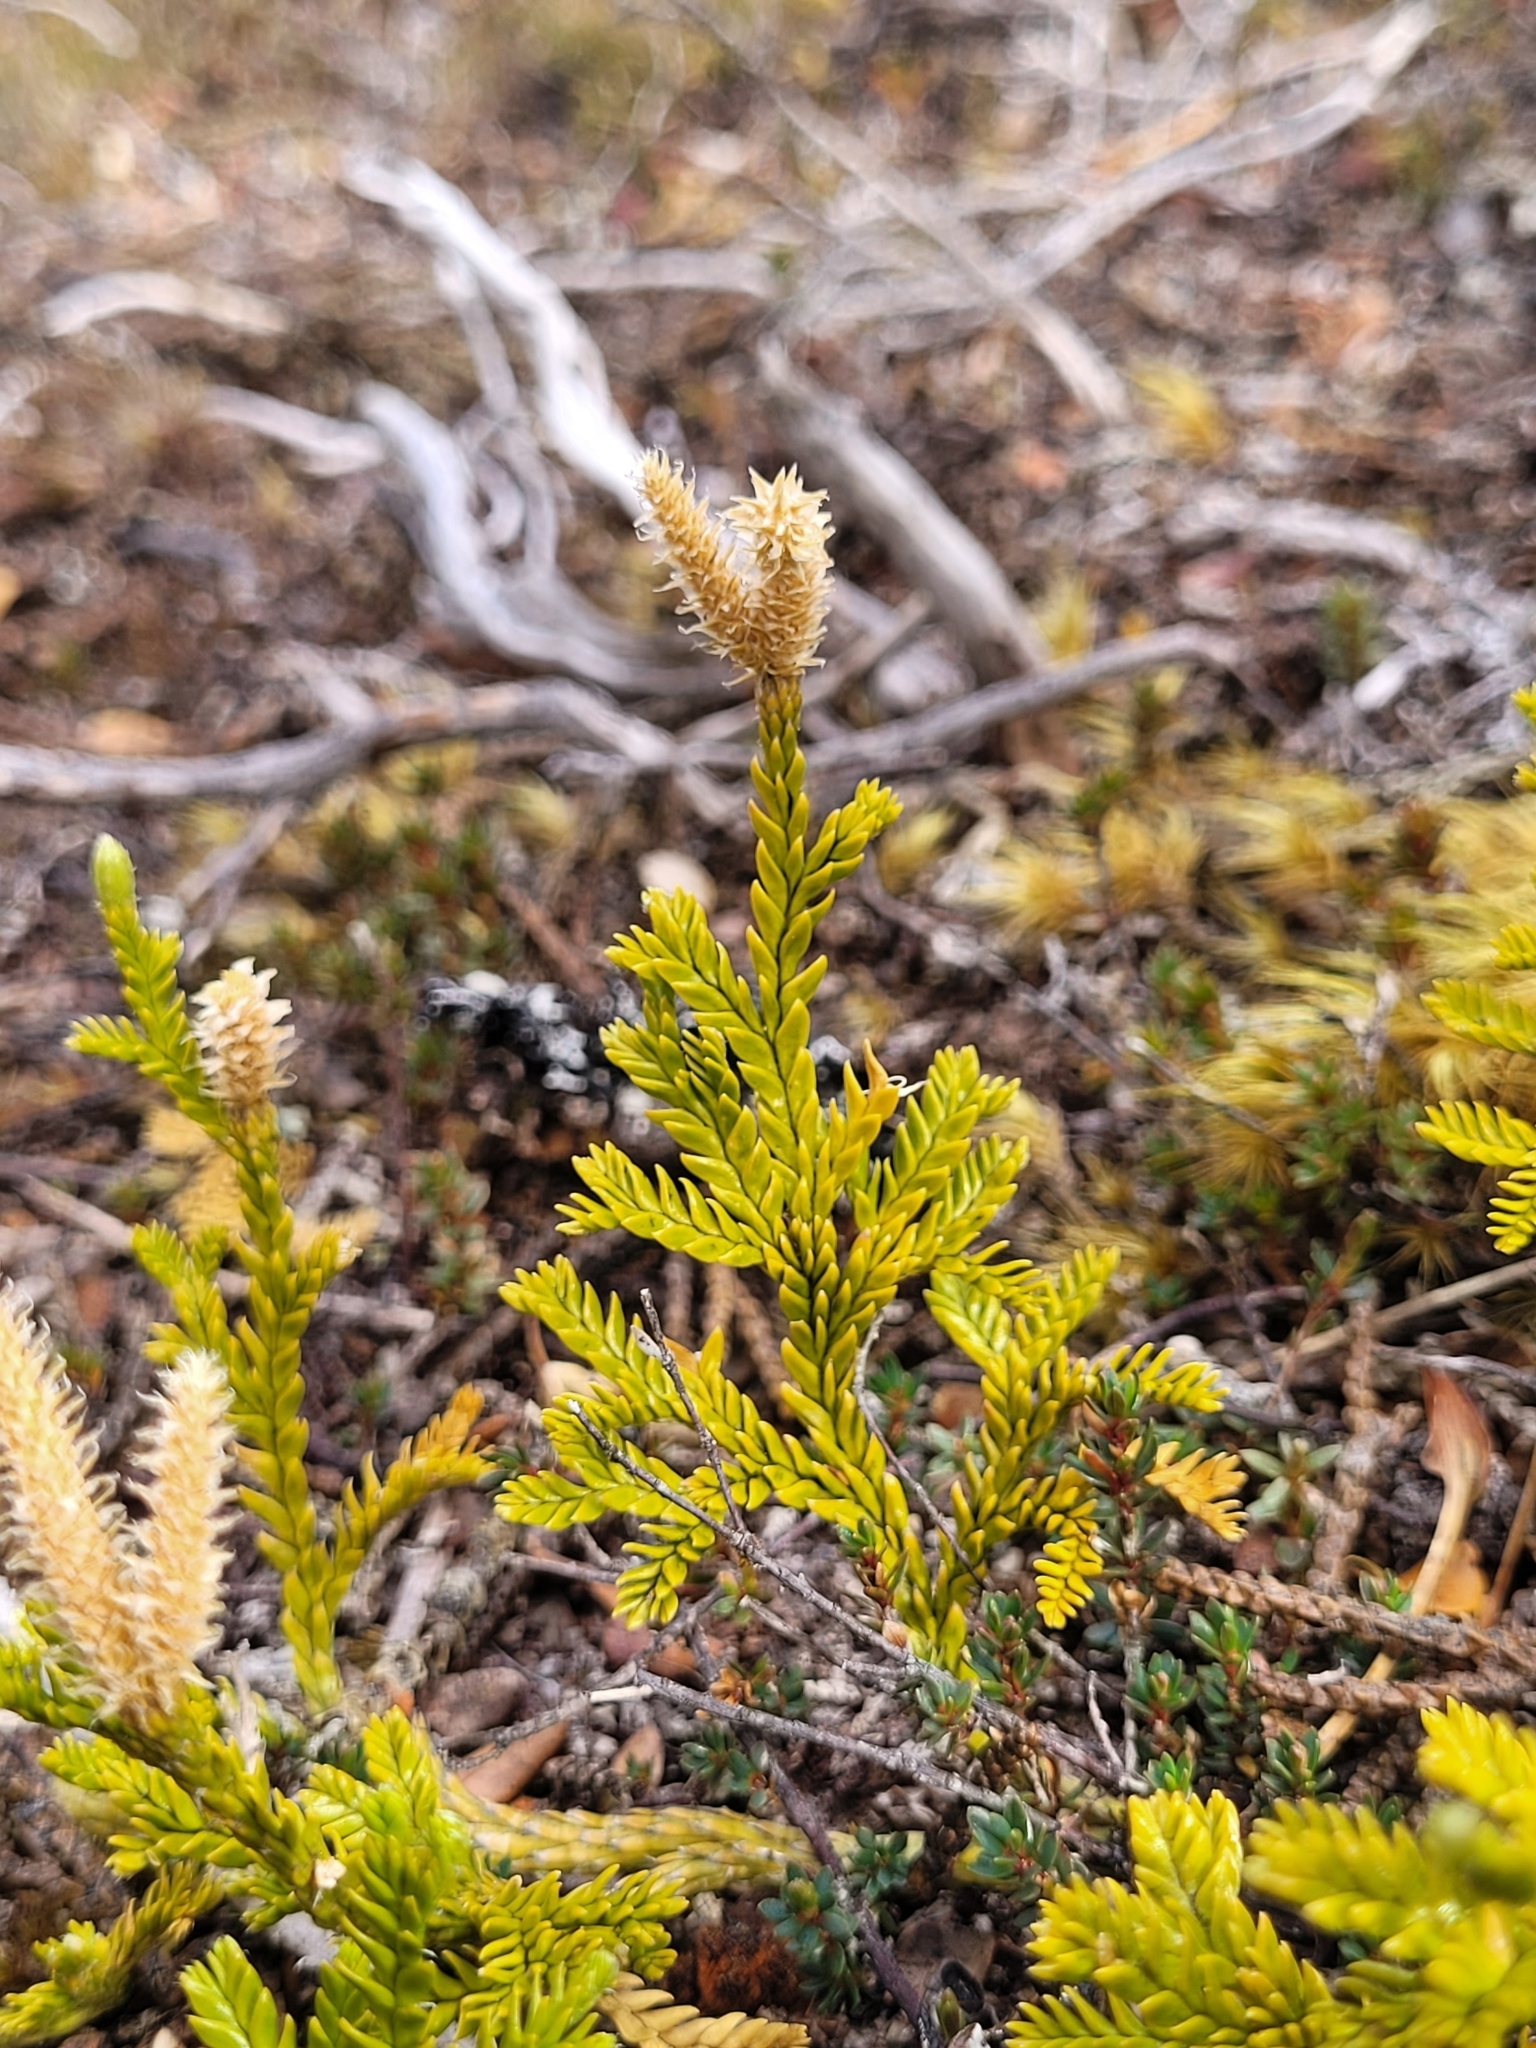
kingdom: Plantae
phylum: Tracheophyta
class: Lycopodiopsida
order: Lycopodiales
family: Lycopodiaceae
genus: Diphasium
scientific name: Diphasium scariosum
